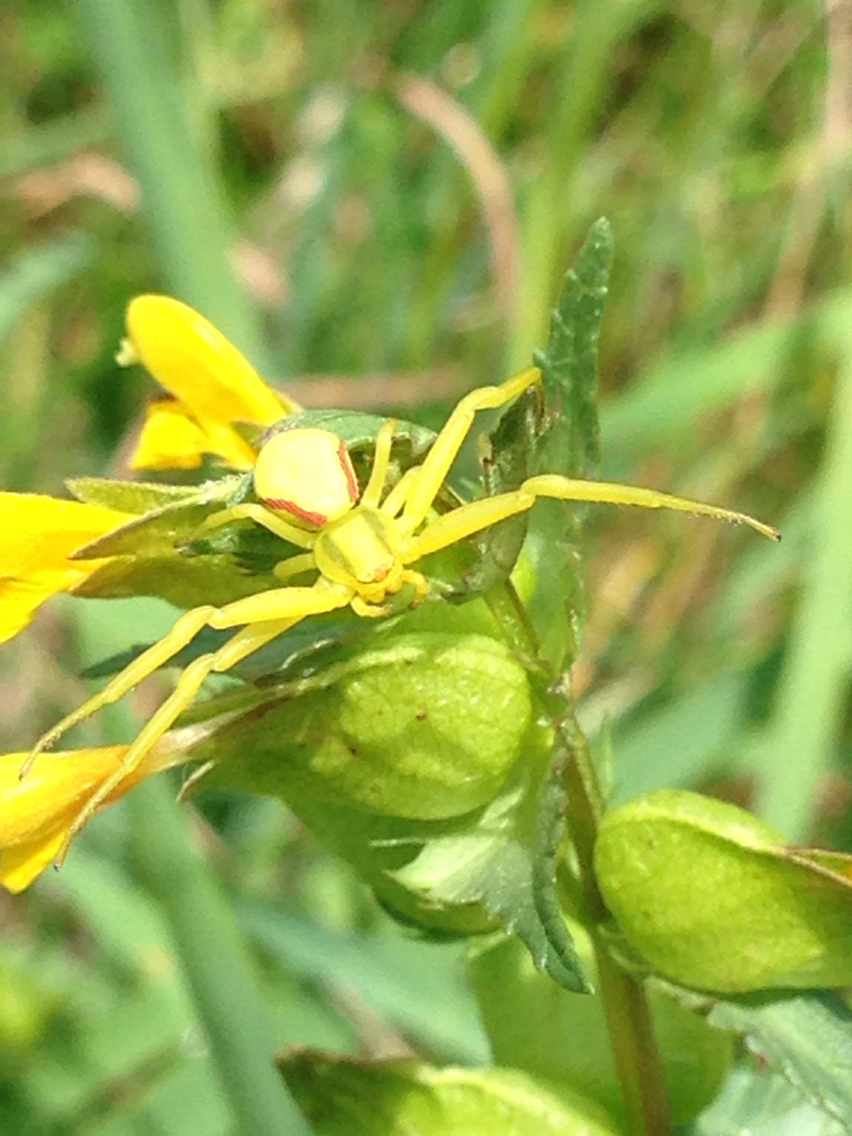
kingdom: Animalia
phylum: Arthropoda
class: Arachnida
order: Araneae
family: Thomisidae
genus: Misumena
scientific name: Misumena vatia
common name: Goldenrod crab spider
